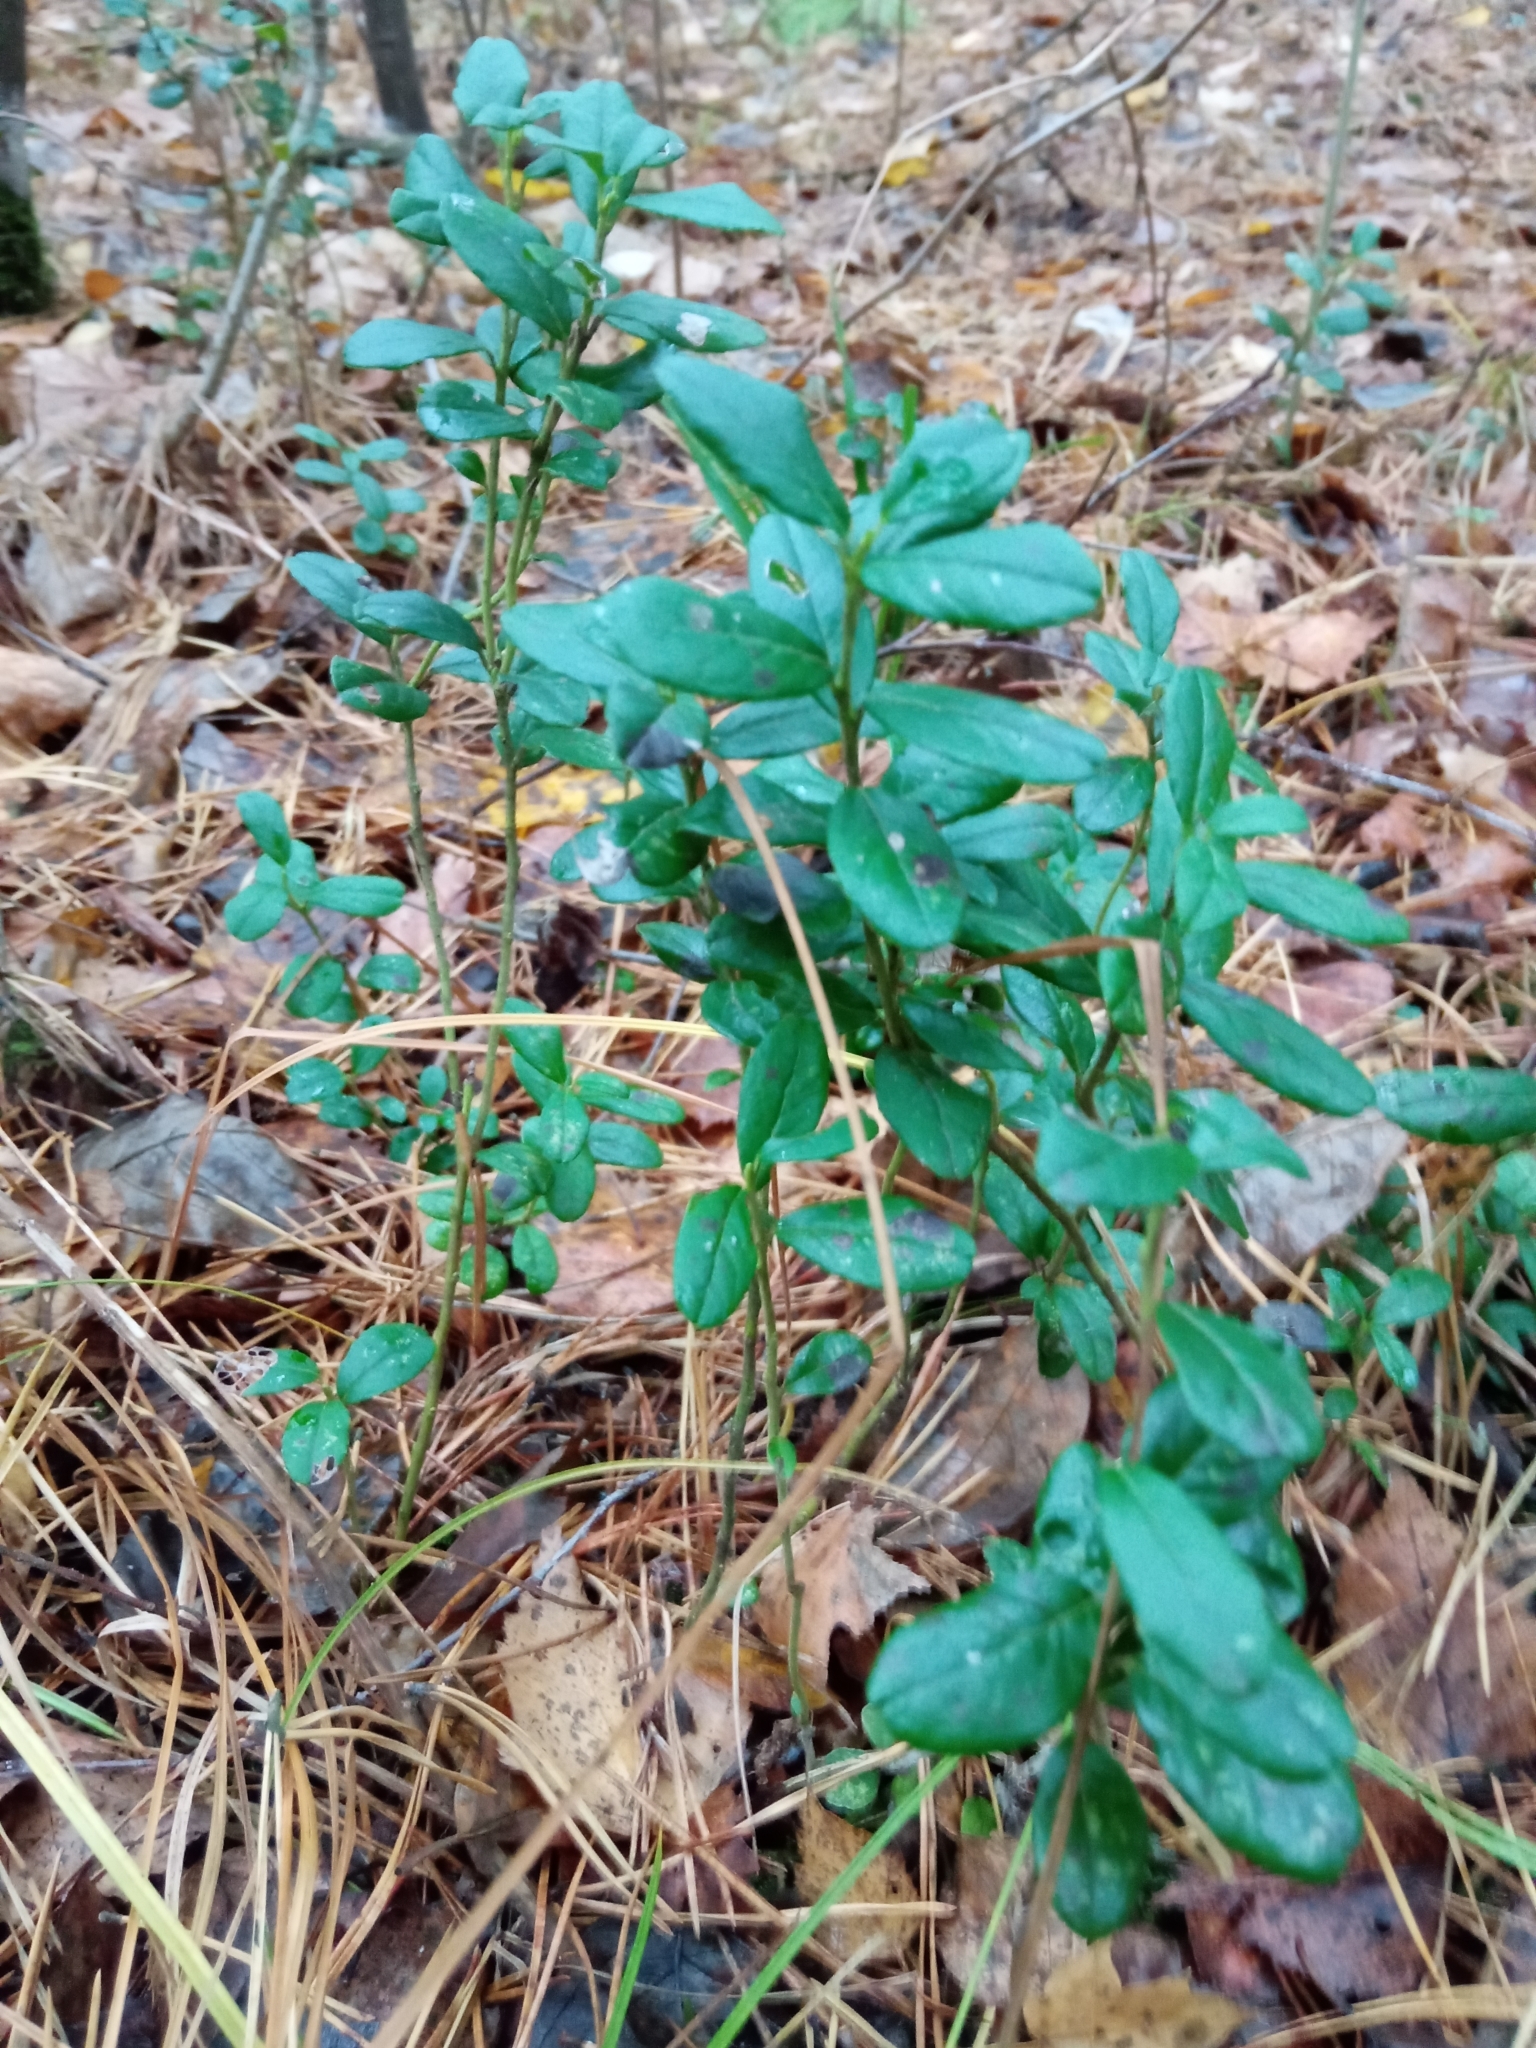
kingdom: Plantae
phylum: Tracheophyta
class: Magnoliopsida
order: Ericales
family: Ericaceae
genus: Vaccinium
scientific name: Vaccinium vitis-idaea
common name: Cowberry
